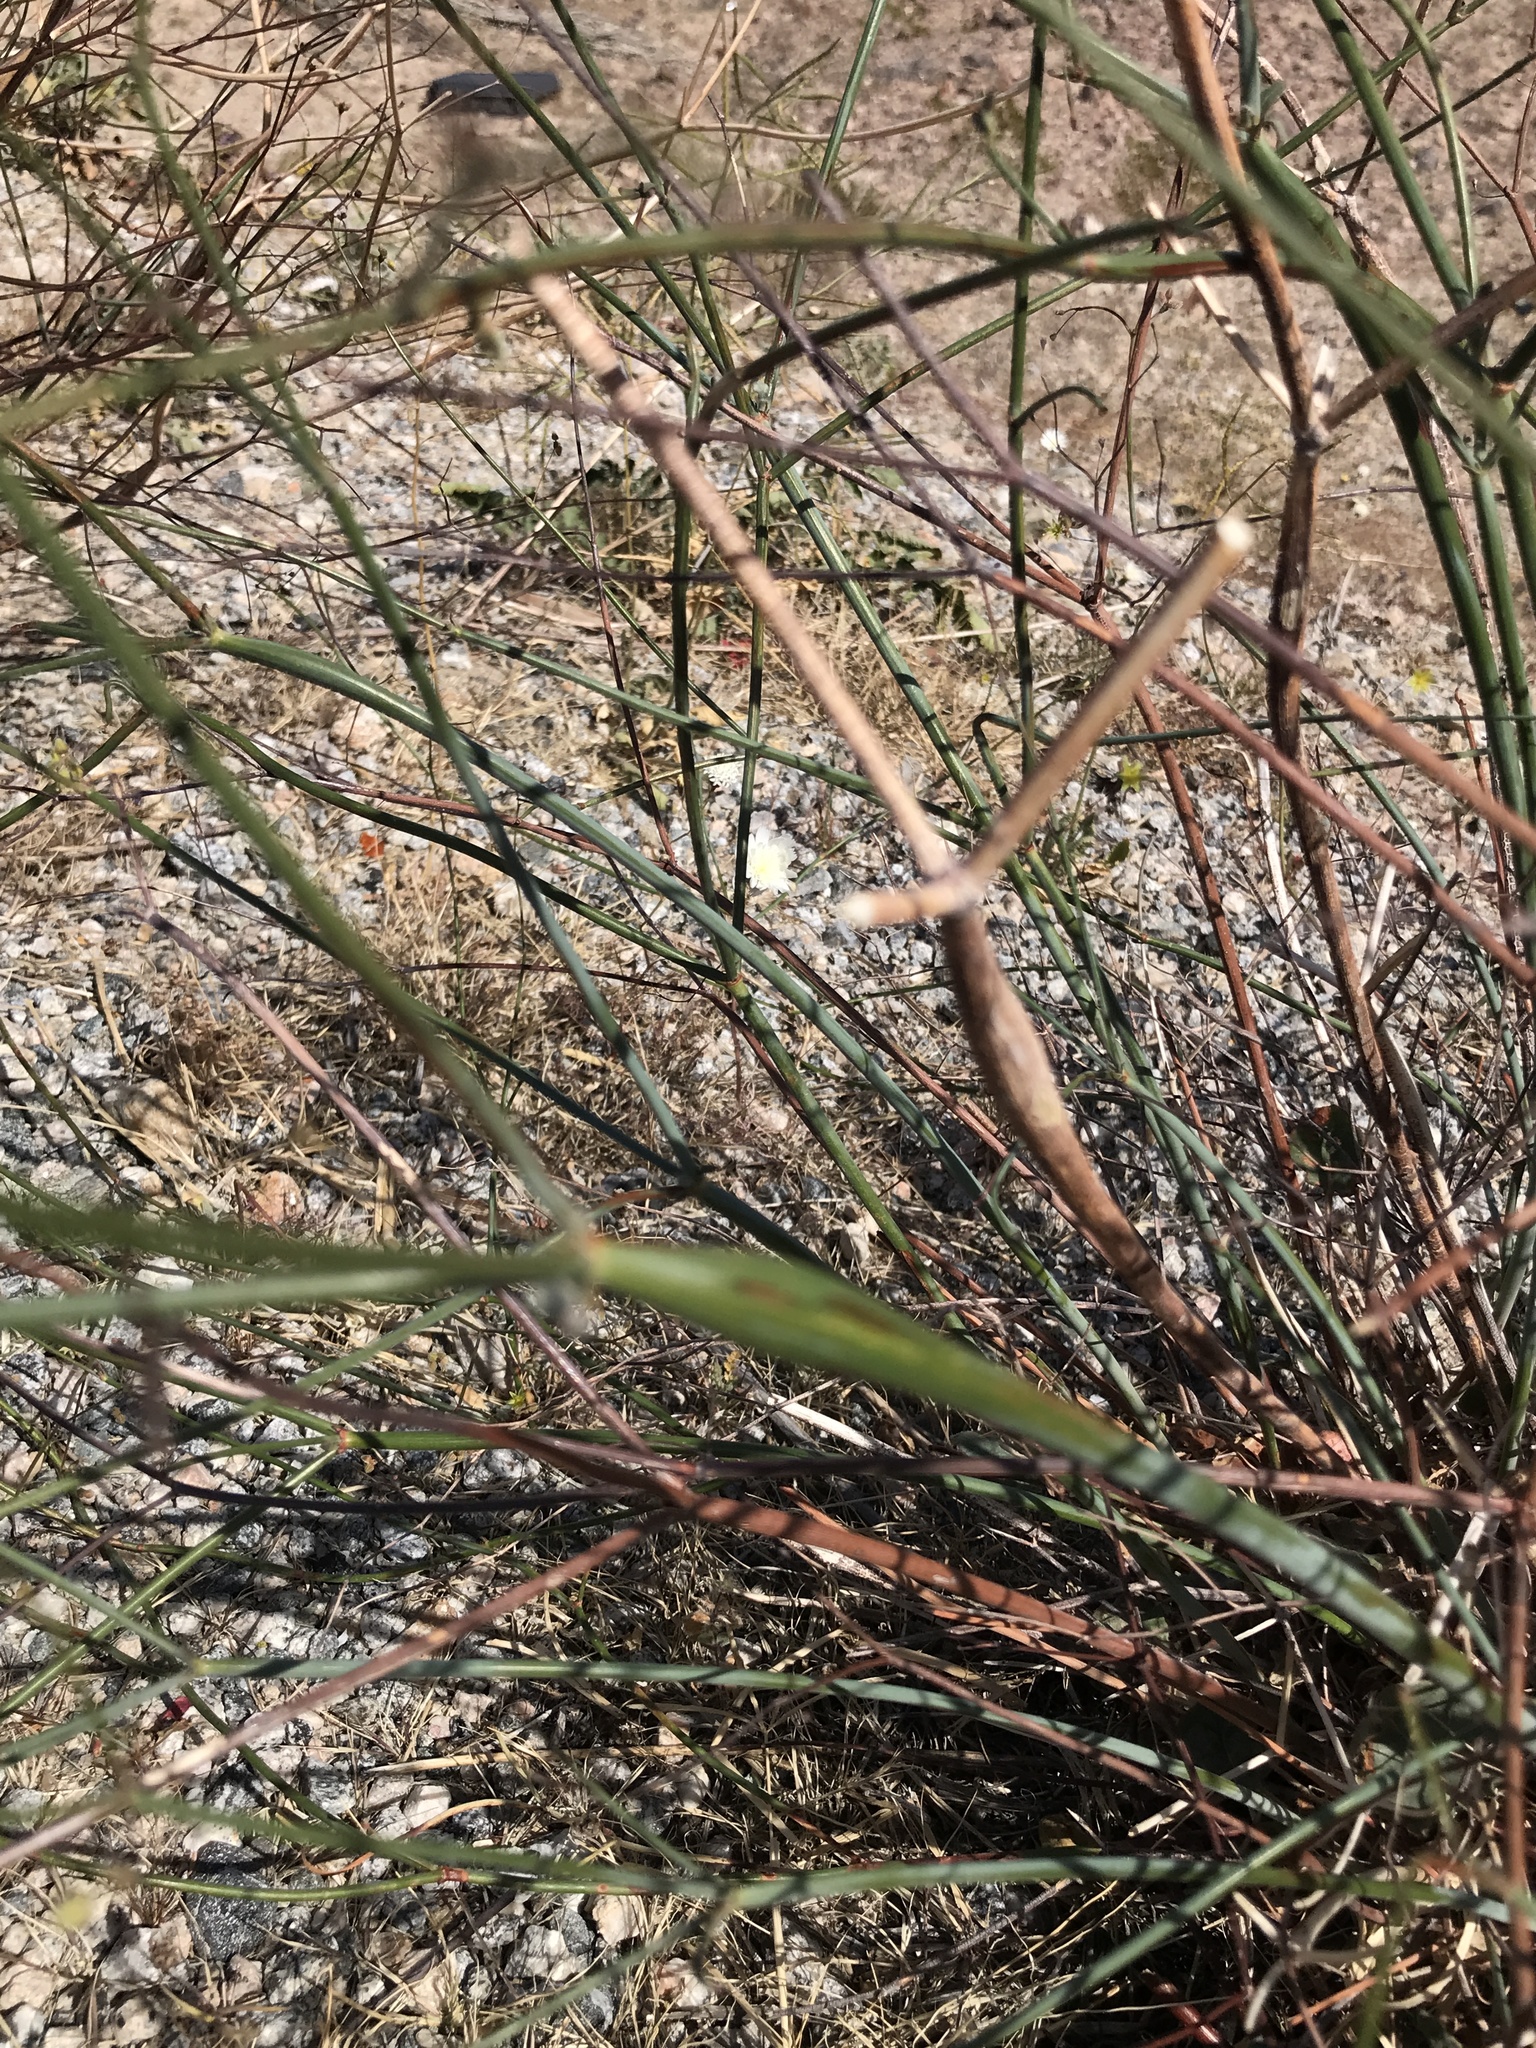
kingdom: Plantae
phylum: Tracheophyta
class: Magnoliopsida
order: Caryophyllales
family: Polygonaceae
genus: Eriogonum
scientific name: Eriogonum inflatum
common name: Desert trumpet
